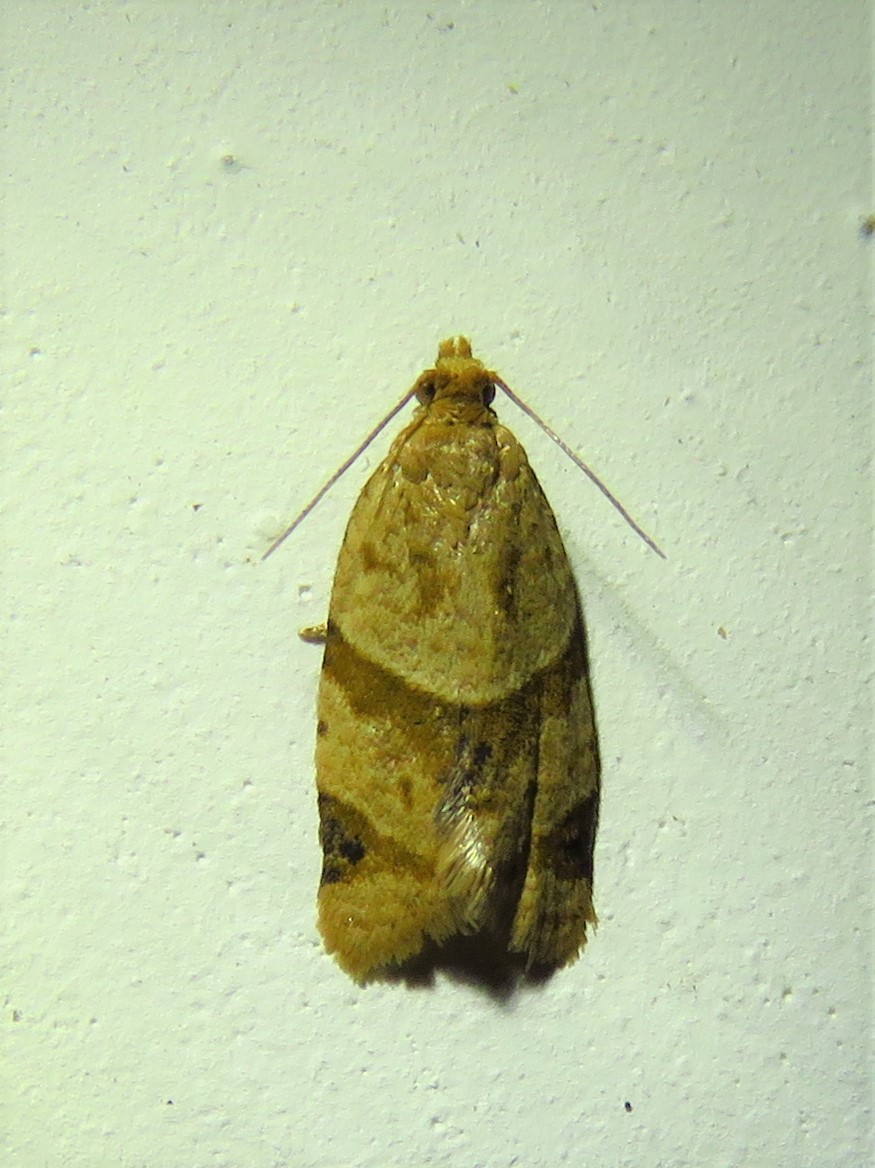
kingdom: Animalia
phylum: Arthropoda
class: Insecta
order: Lepidoptera
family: Tortricidae
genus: Clepsis
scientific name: Clepsis peritana
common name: Garden tortrix
